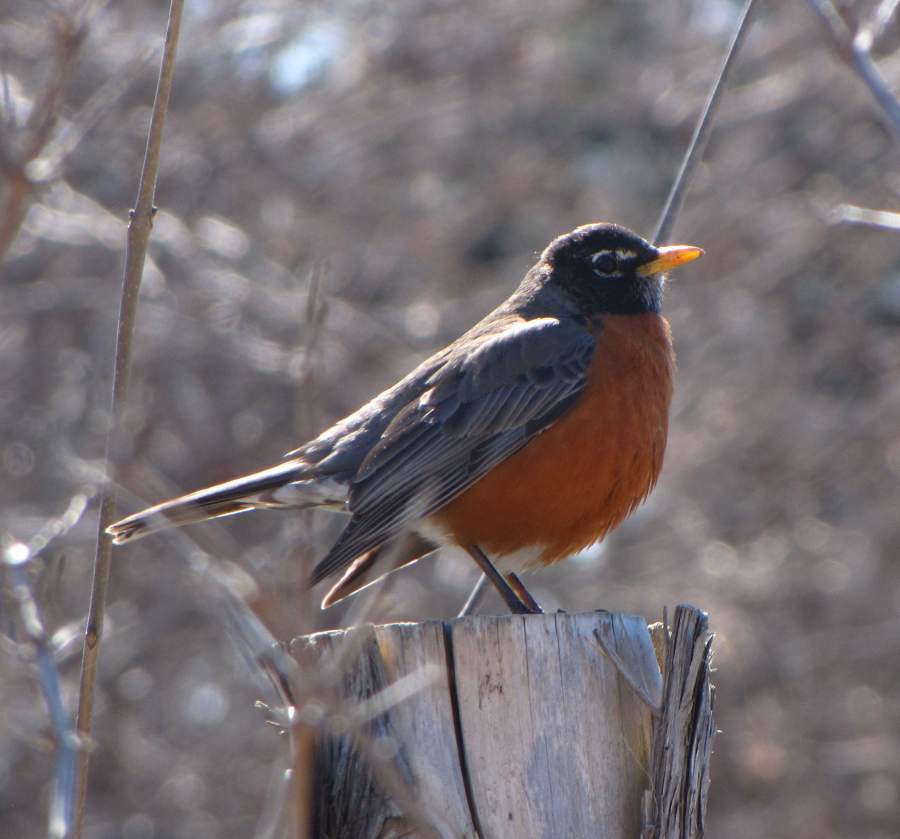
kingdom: Animalia
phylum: Chordata
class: Aves
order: Passeriformes
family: Turdidae
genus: Turdus
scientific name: Turdus migratorius
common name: American robin
